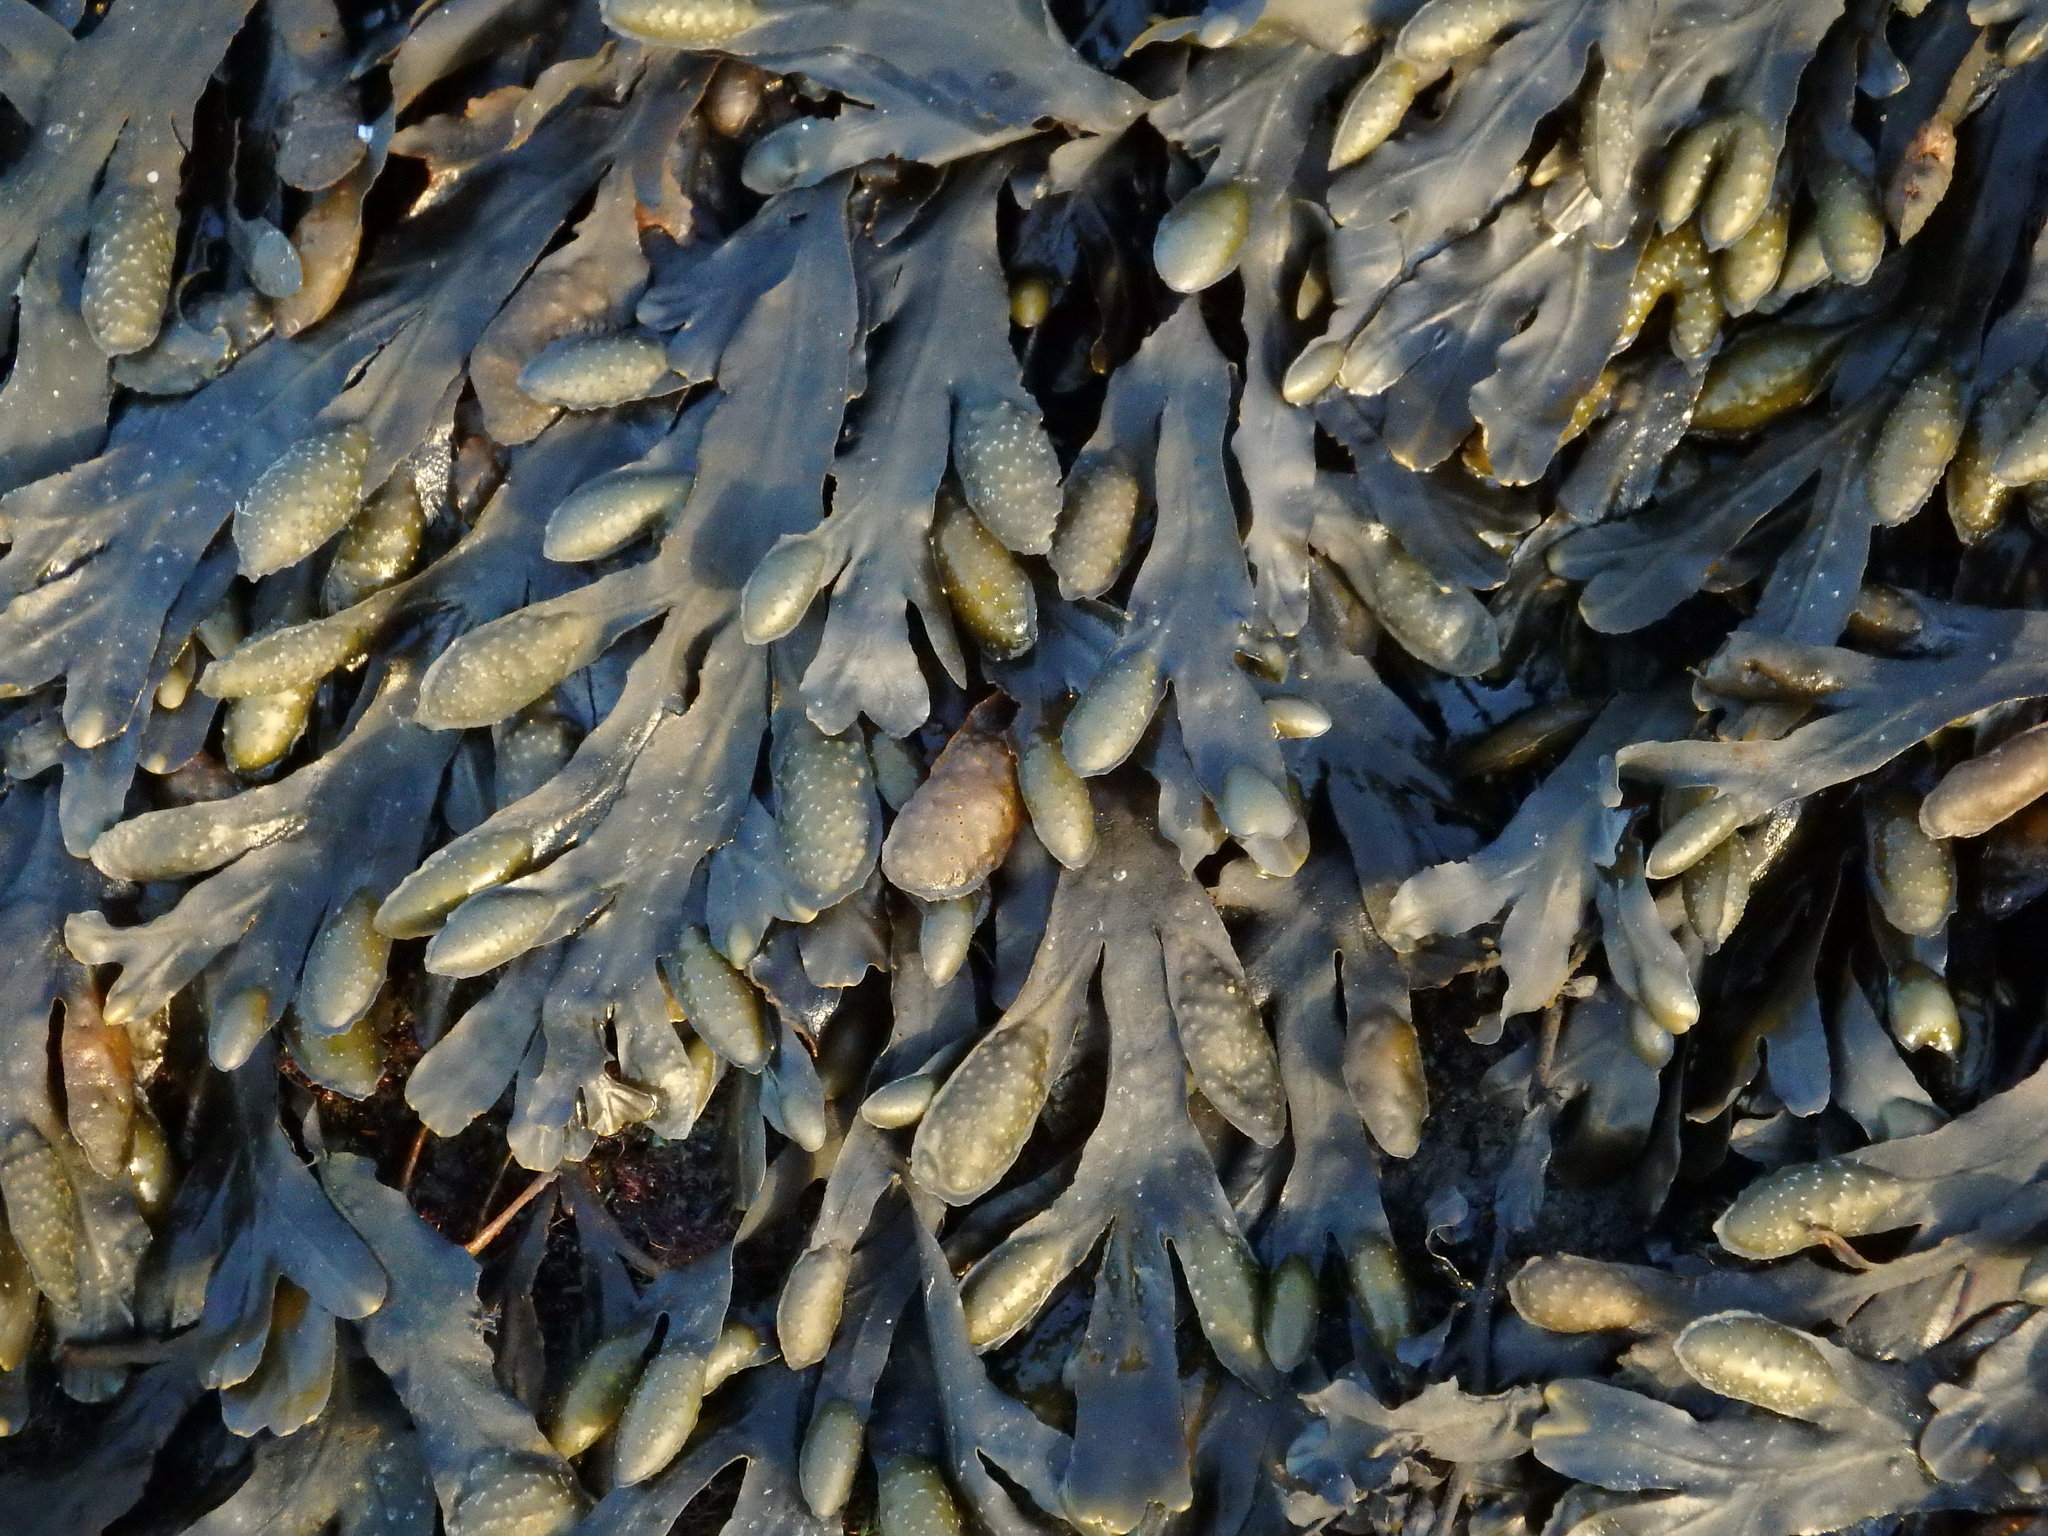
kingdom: Chromista
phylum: Ochrophyta
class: Phaeophyceae
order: Fucales
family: Fucaceae
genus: Fucus
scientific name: Fucus
